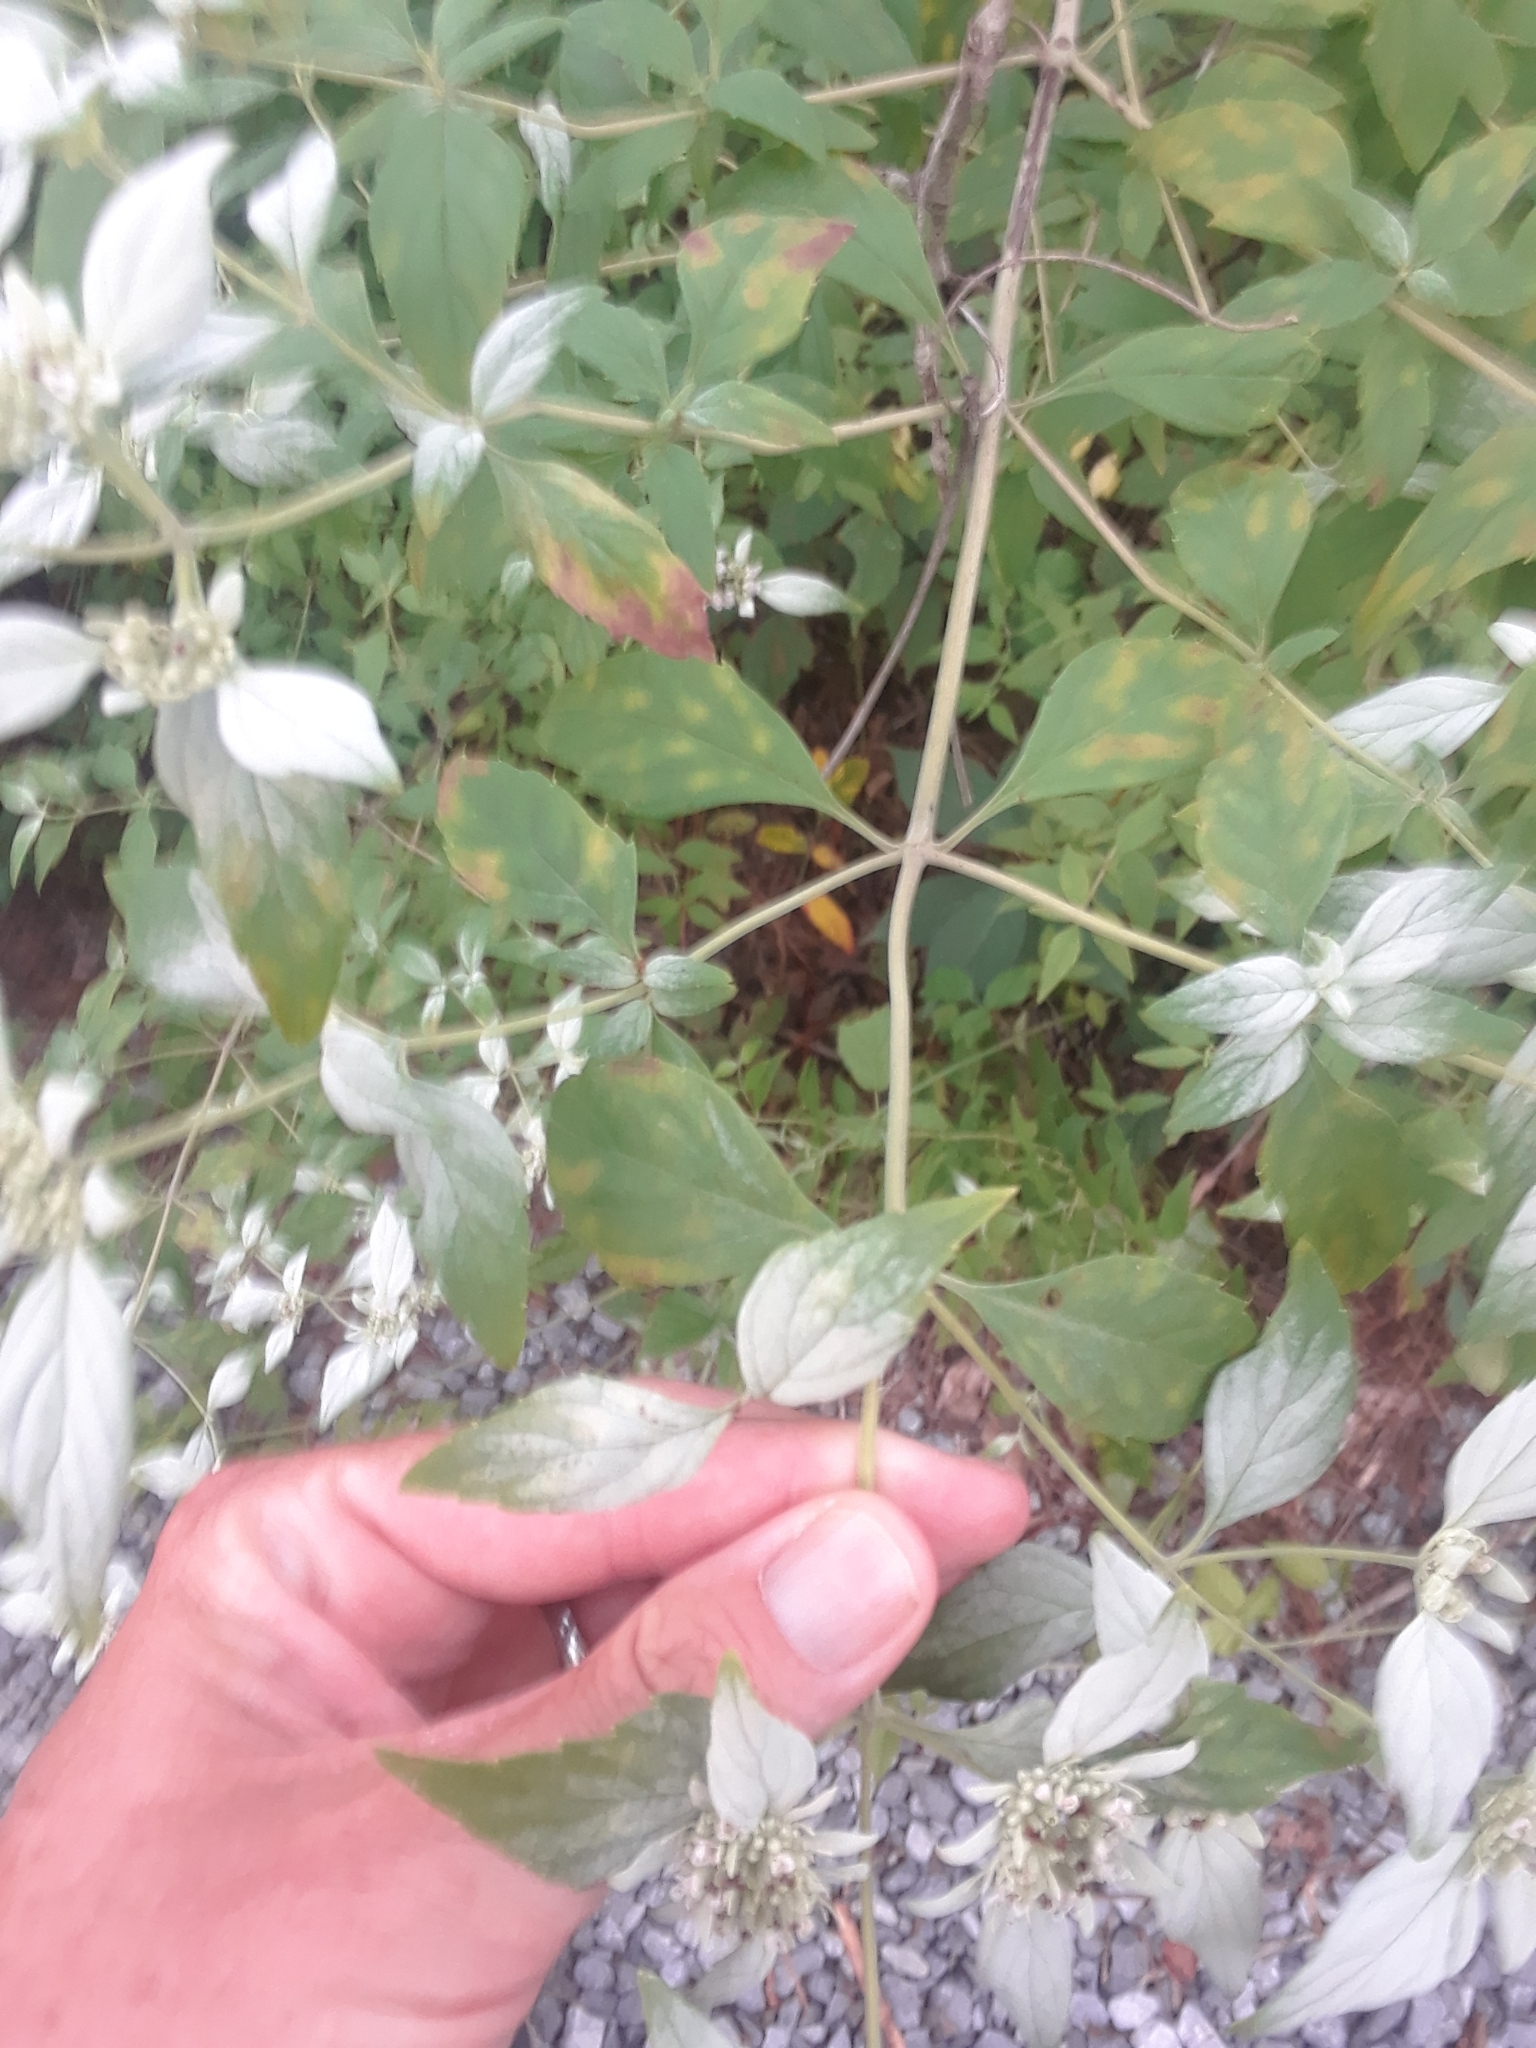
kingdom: Plantae
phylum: Tracheophyta
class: Magnoliopsida
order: Lamiales
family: Lamiaceae
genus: Pycnanthemum
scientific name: Pycnanthemum albescens
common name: White-leaf mountain-mint
